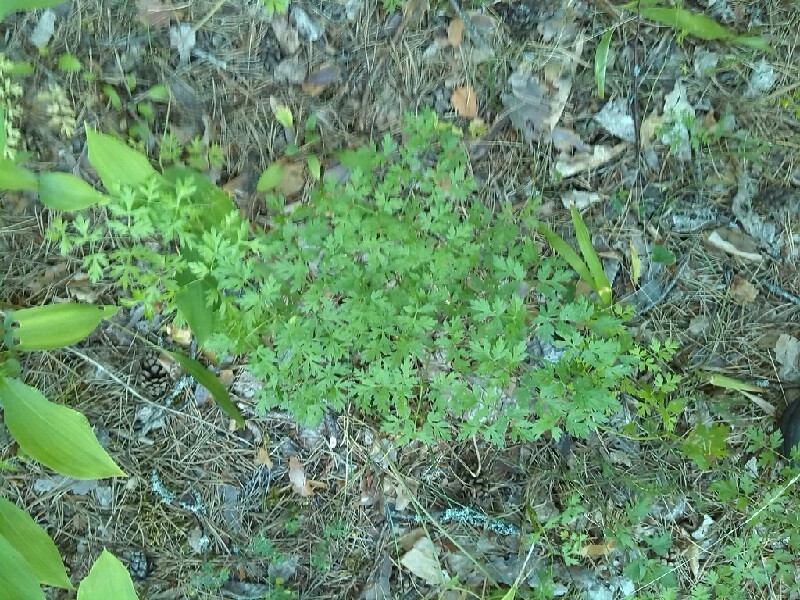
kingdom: Plantae
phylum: Tracheophyta
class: Magnoliopsida
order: Apiales
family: Apiaceae
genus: Oreoselinum
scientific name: Oreoselinum nigrum
